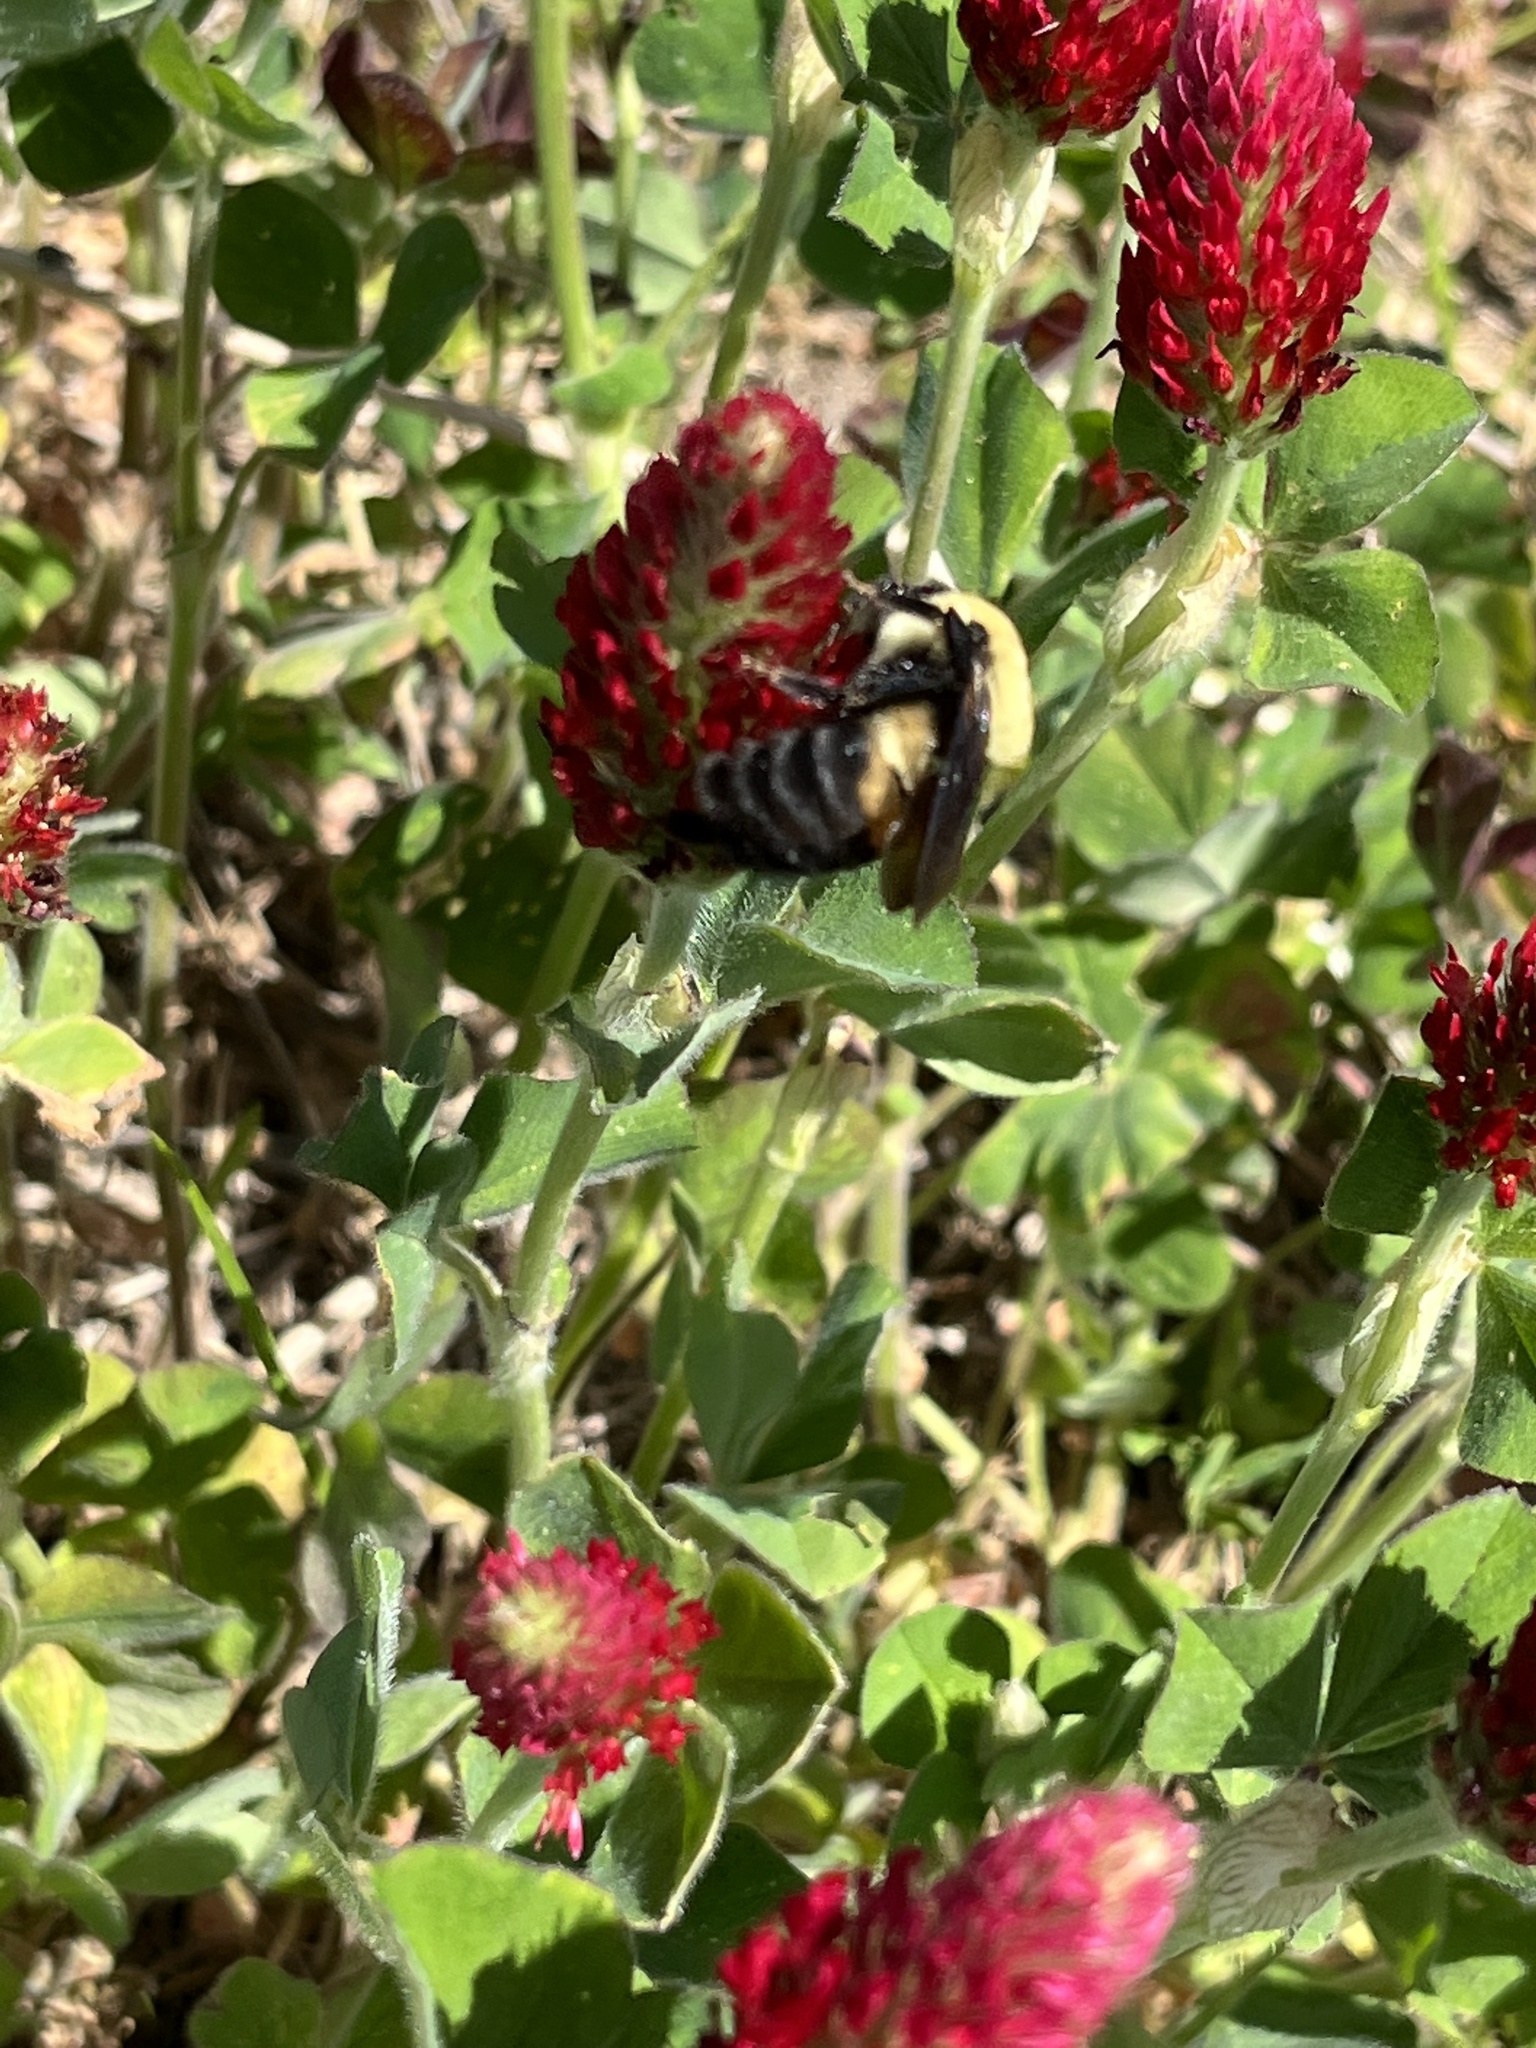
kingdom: Plantae
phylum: Tracheophyta
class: Magnoliopsida
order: Fabales
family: Fabaceae
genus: Trifolium
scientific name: Trifolium incarnatum
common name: Crimson clover
